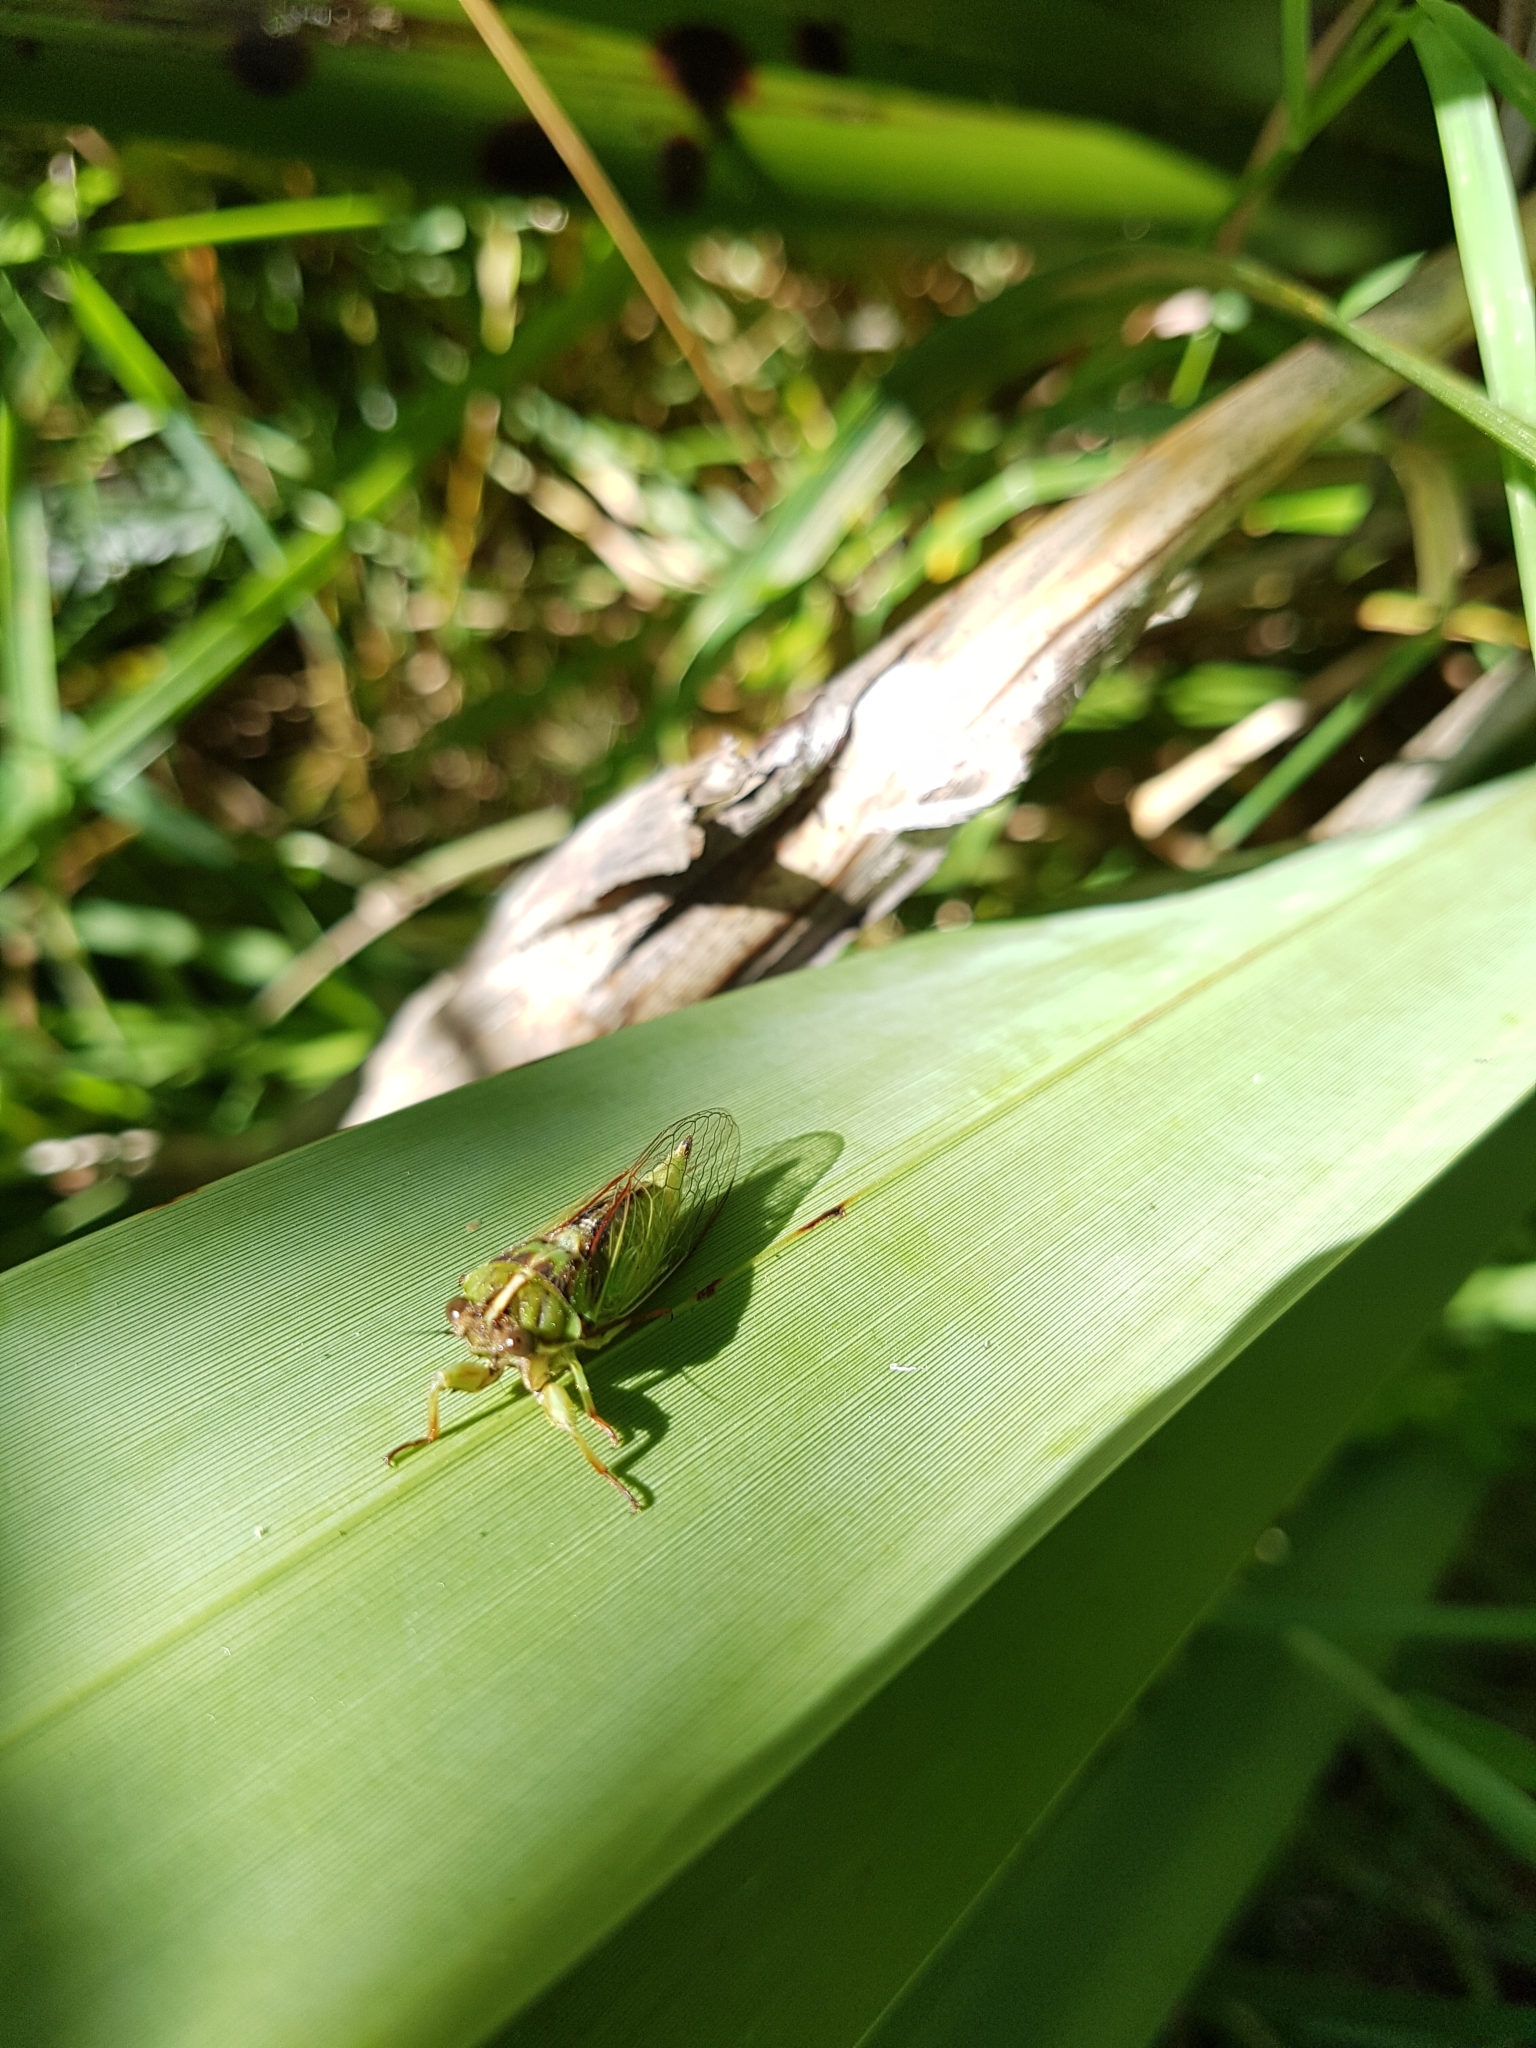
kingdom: Animalia
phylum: Arthropoda
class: Insecta
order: Hemiptera
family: Cicadidae
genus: Kikihia
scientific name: Kikihia muta
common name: Variable cicada
